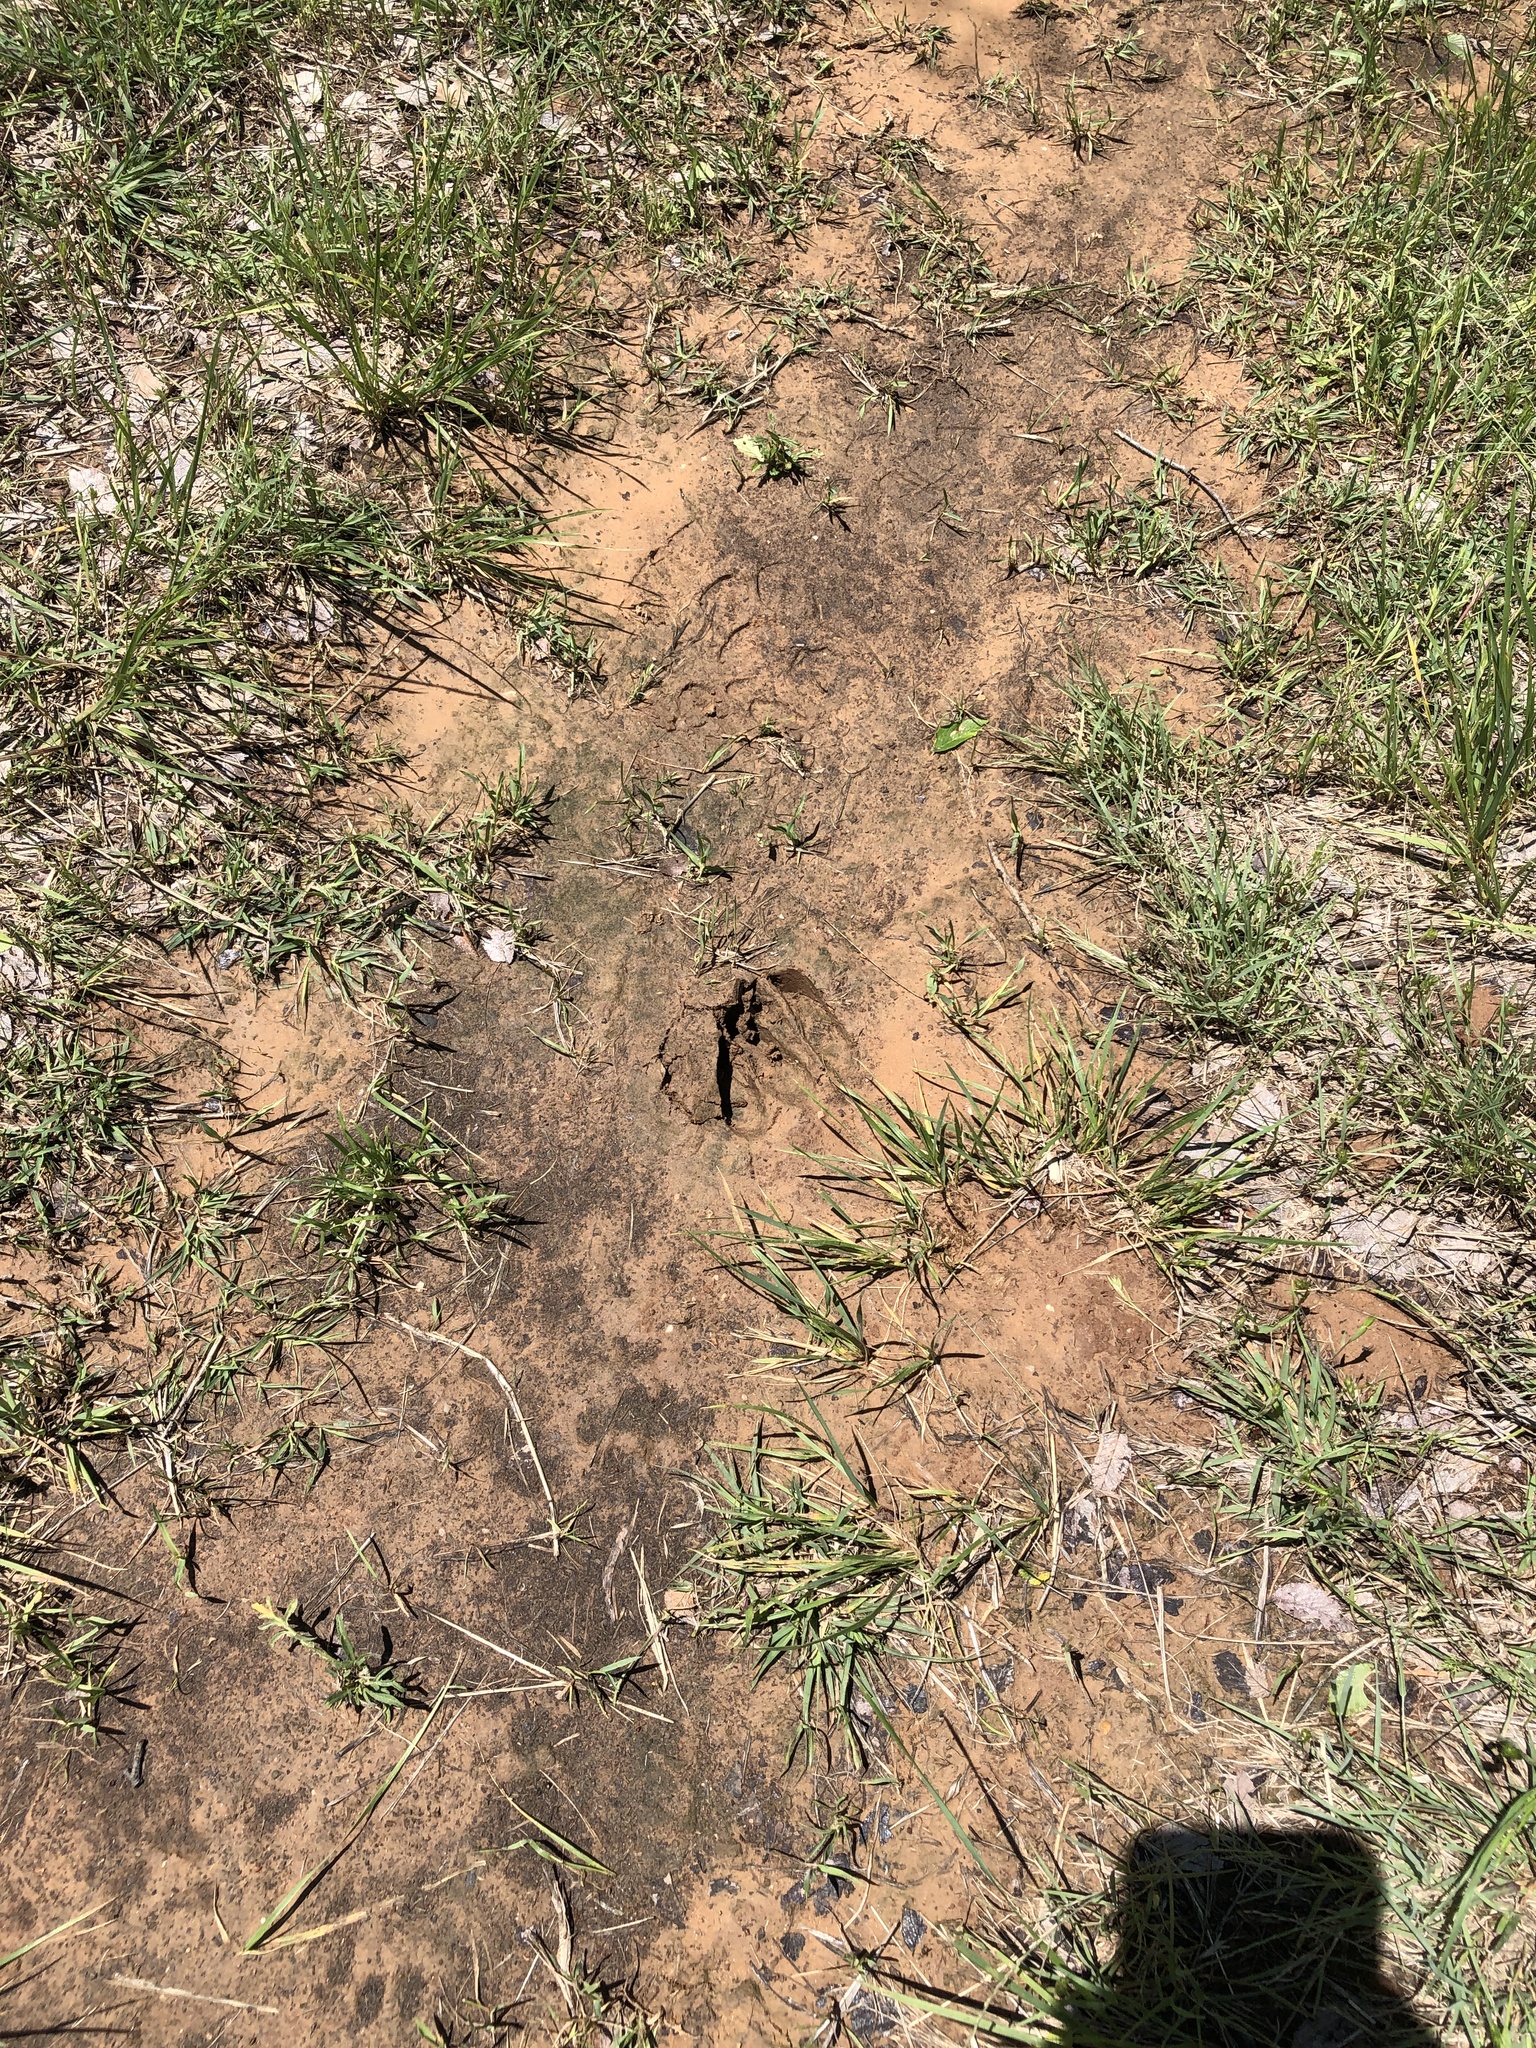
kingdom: Animalia
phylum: Chordata
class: Mammalia
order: Artiodactyla
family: Cervidae
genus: Odocoileus
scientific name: Odocoileus virginianus
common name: White-tailed deer
